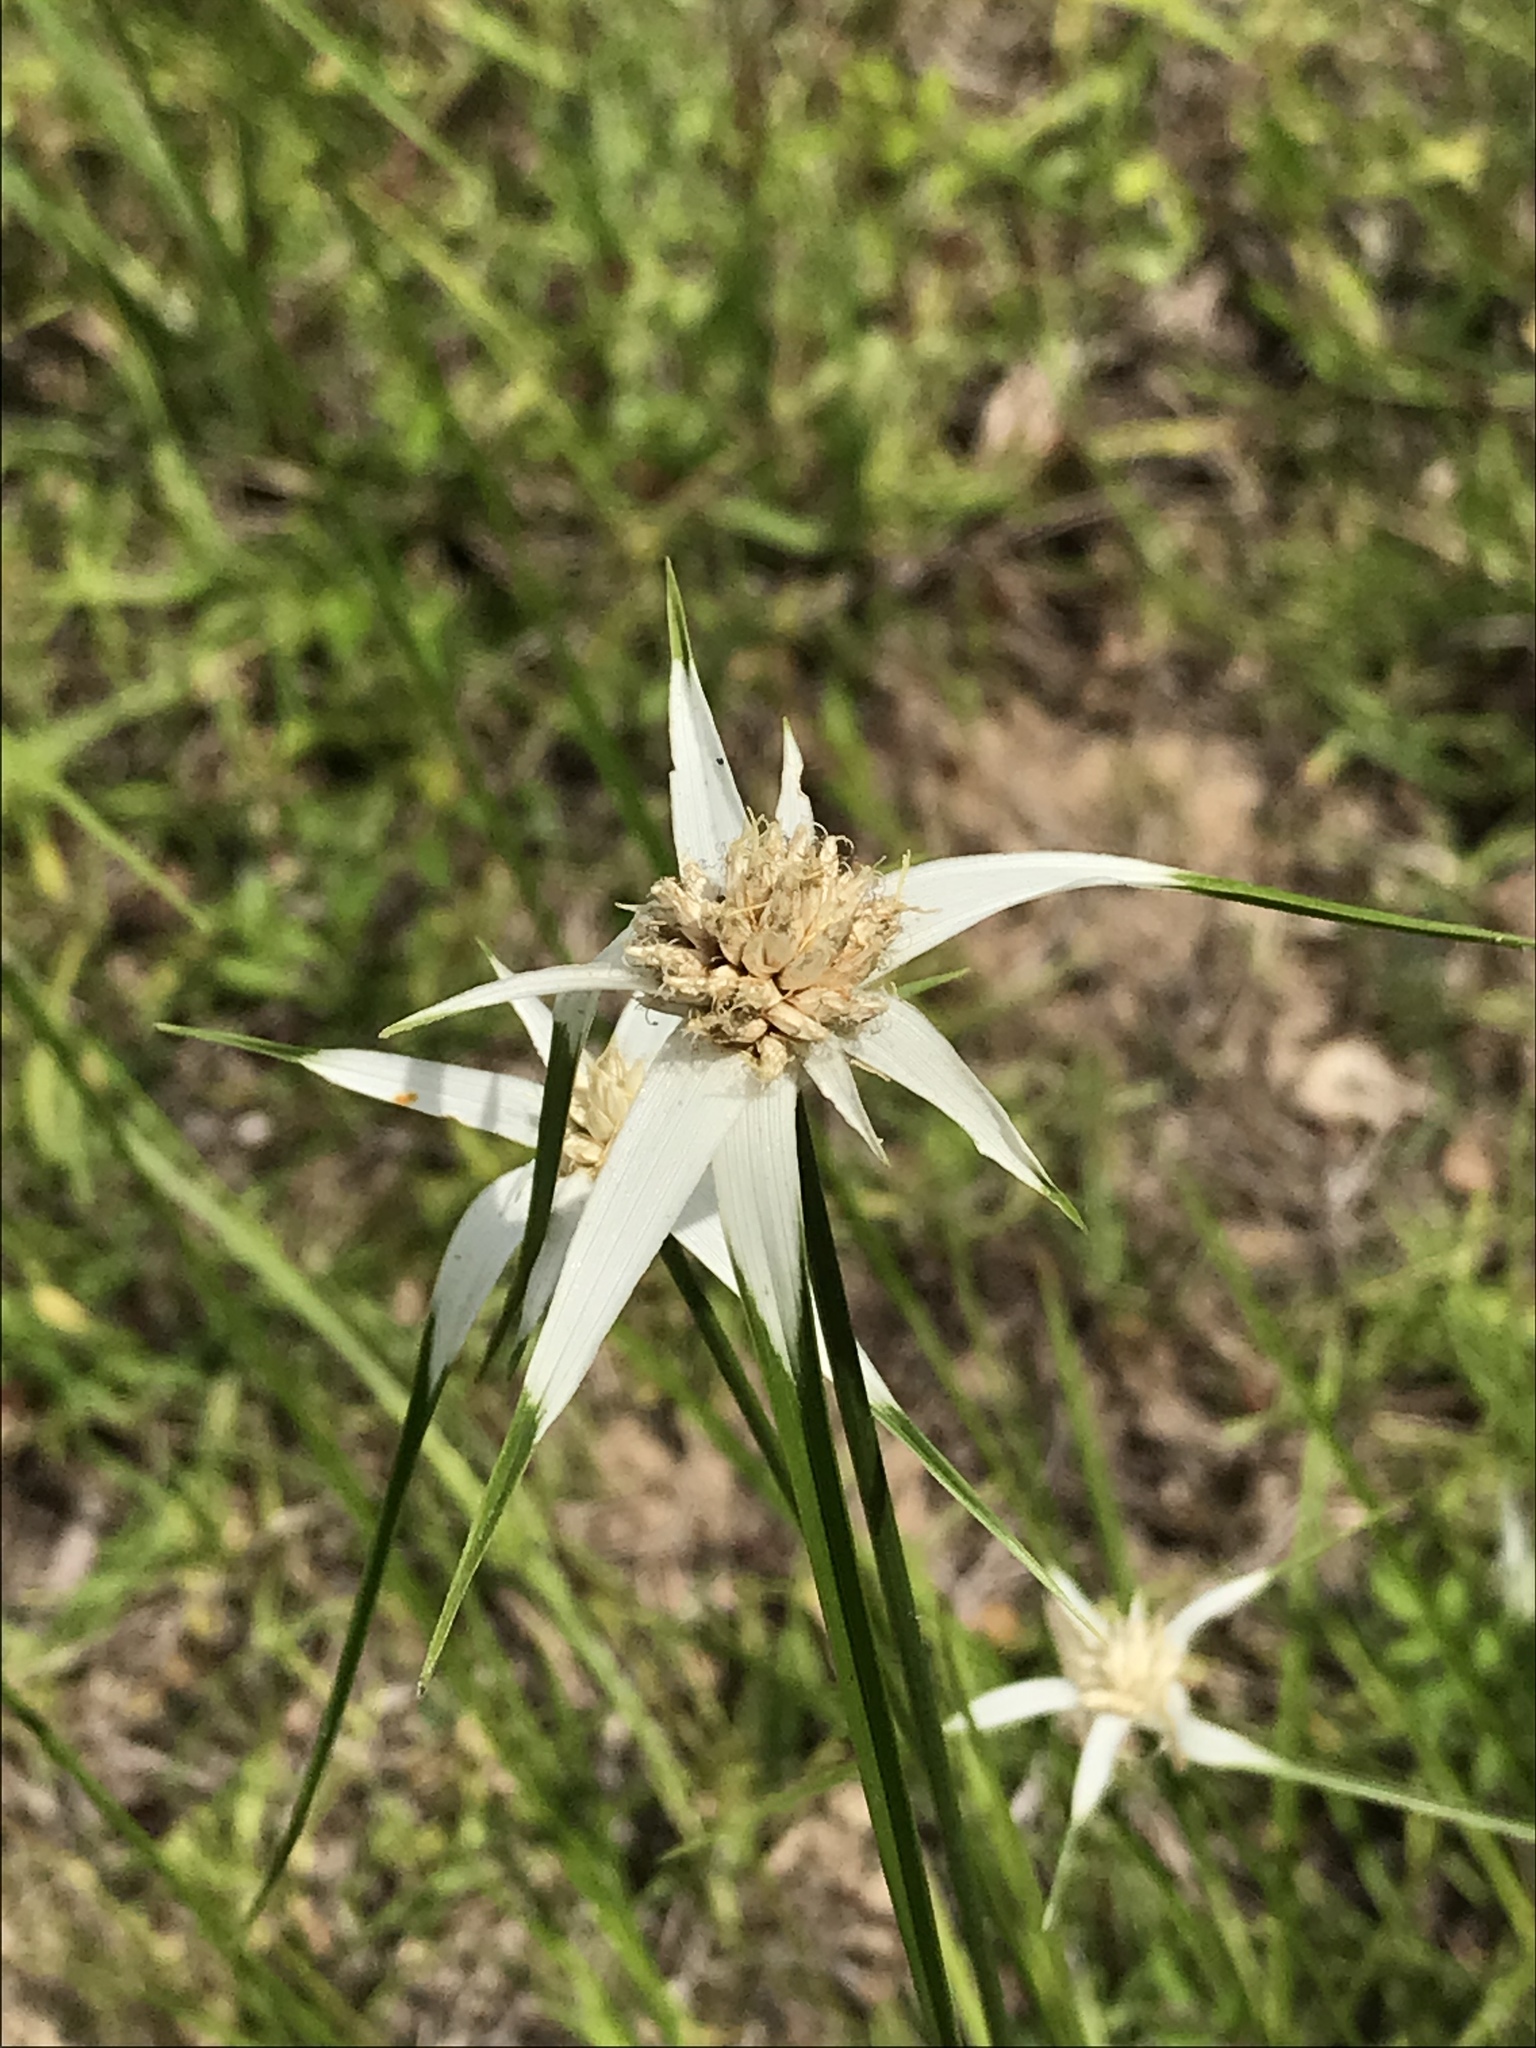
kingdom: Plantae
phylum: Tracheophyta
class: Liliopsida
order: Poales
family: Cyperaceae
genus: Rhynchospora
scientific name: Rhynchospora colorata
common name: Star sedge
